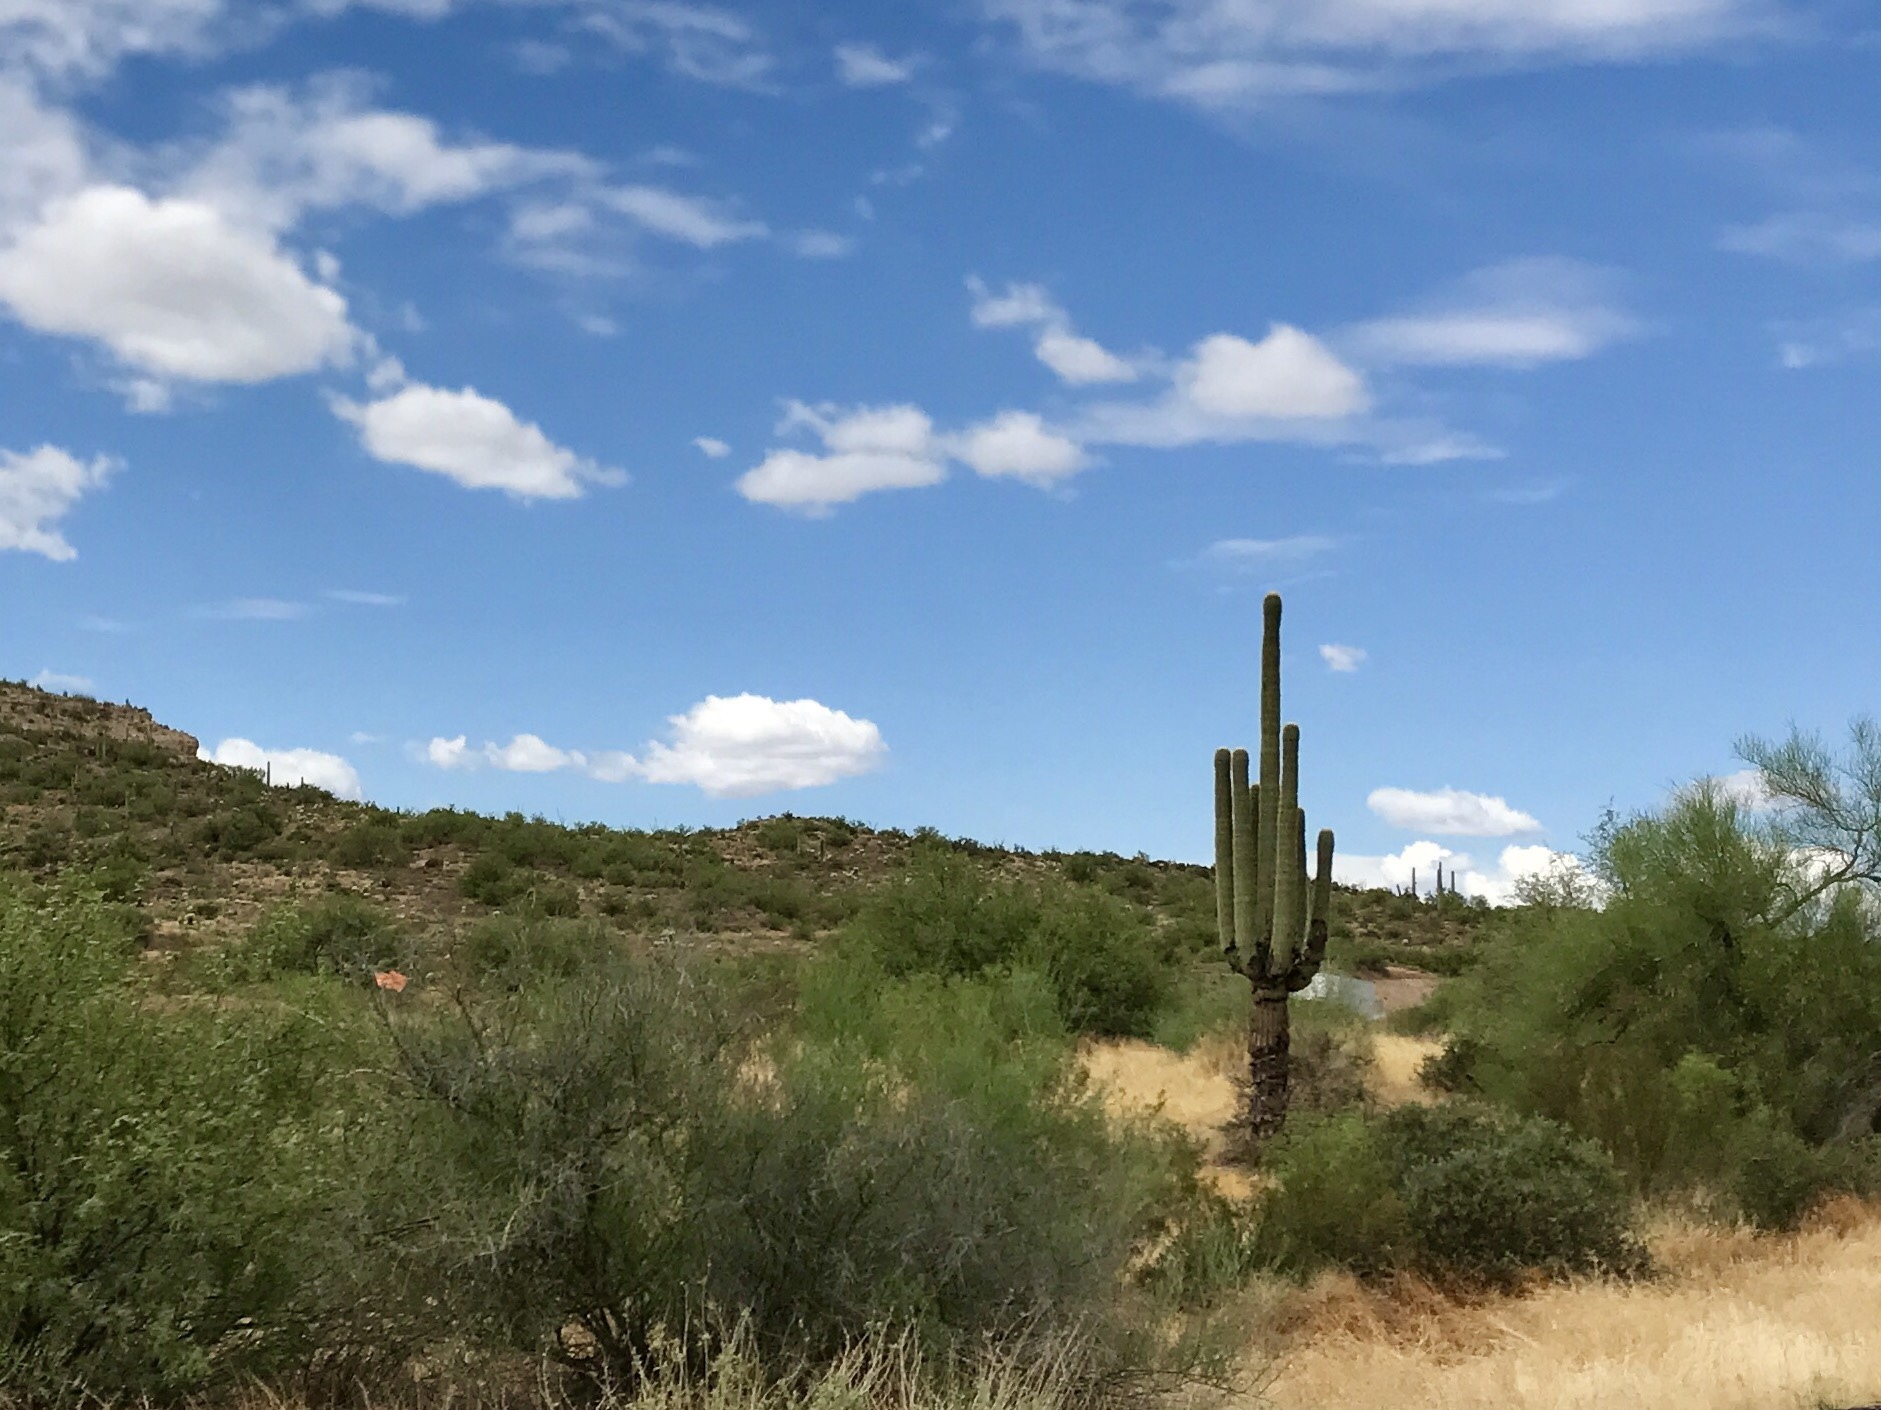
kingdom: Plantae
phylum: Tracheophyta
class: Magnoliopsida
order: Caryophyllales
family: Cactaceae
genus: Carnegiea
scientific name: Carnegiea gigantea
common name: Saguaro
